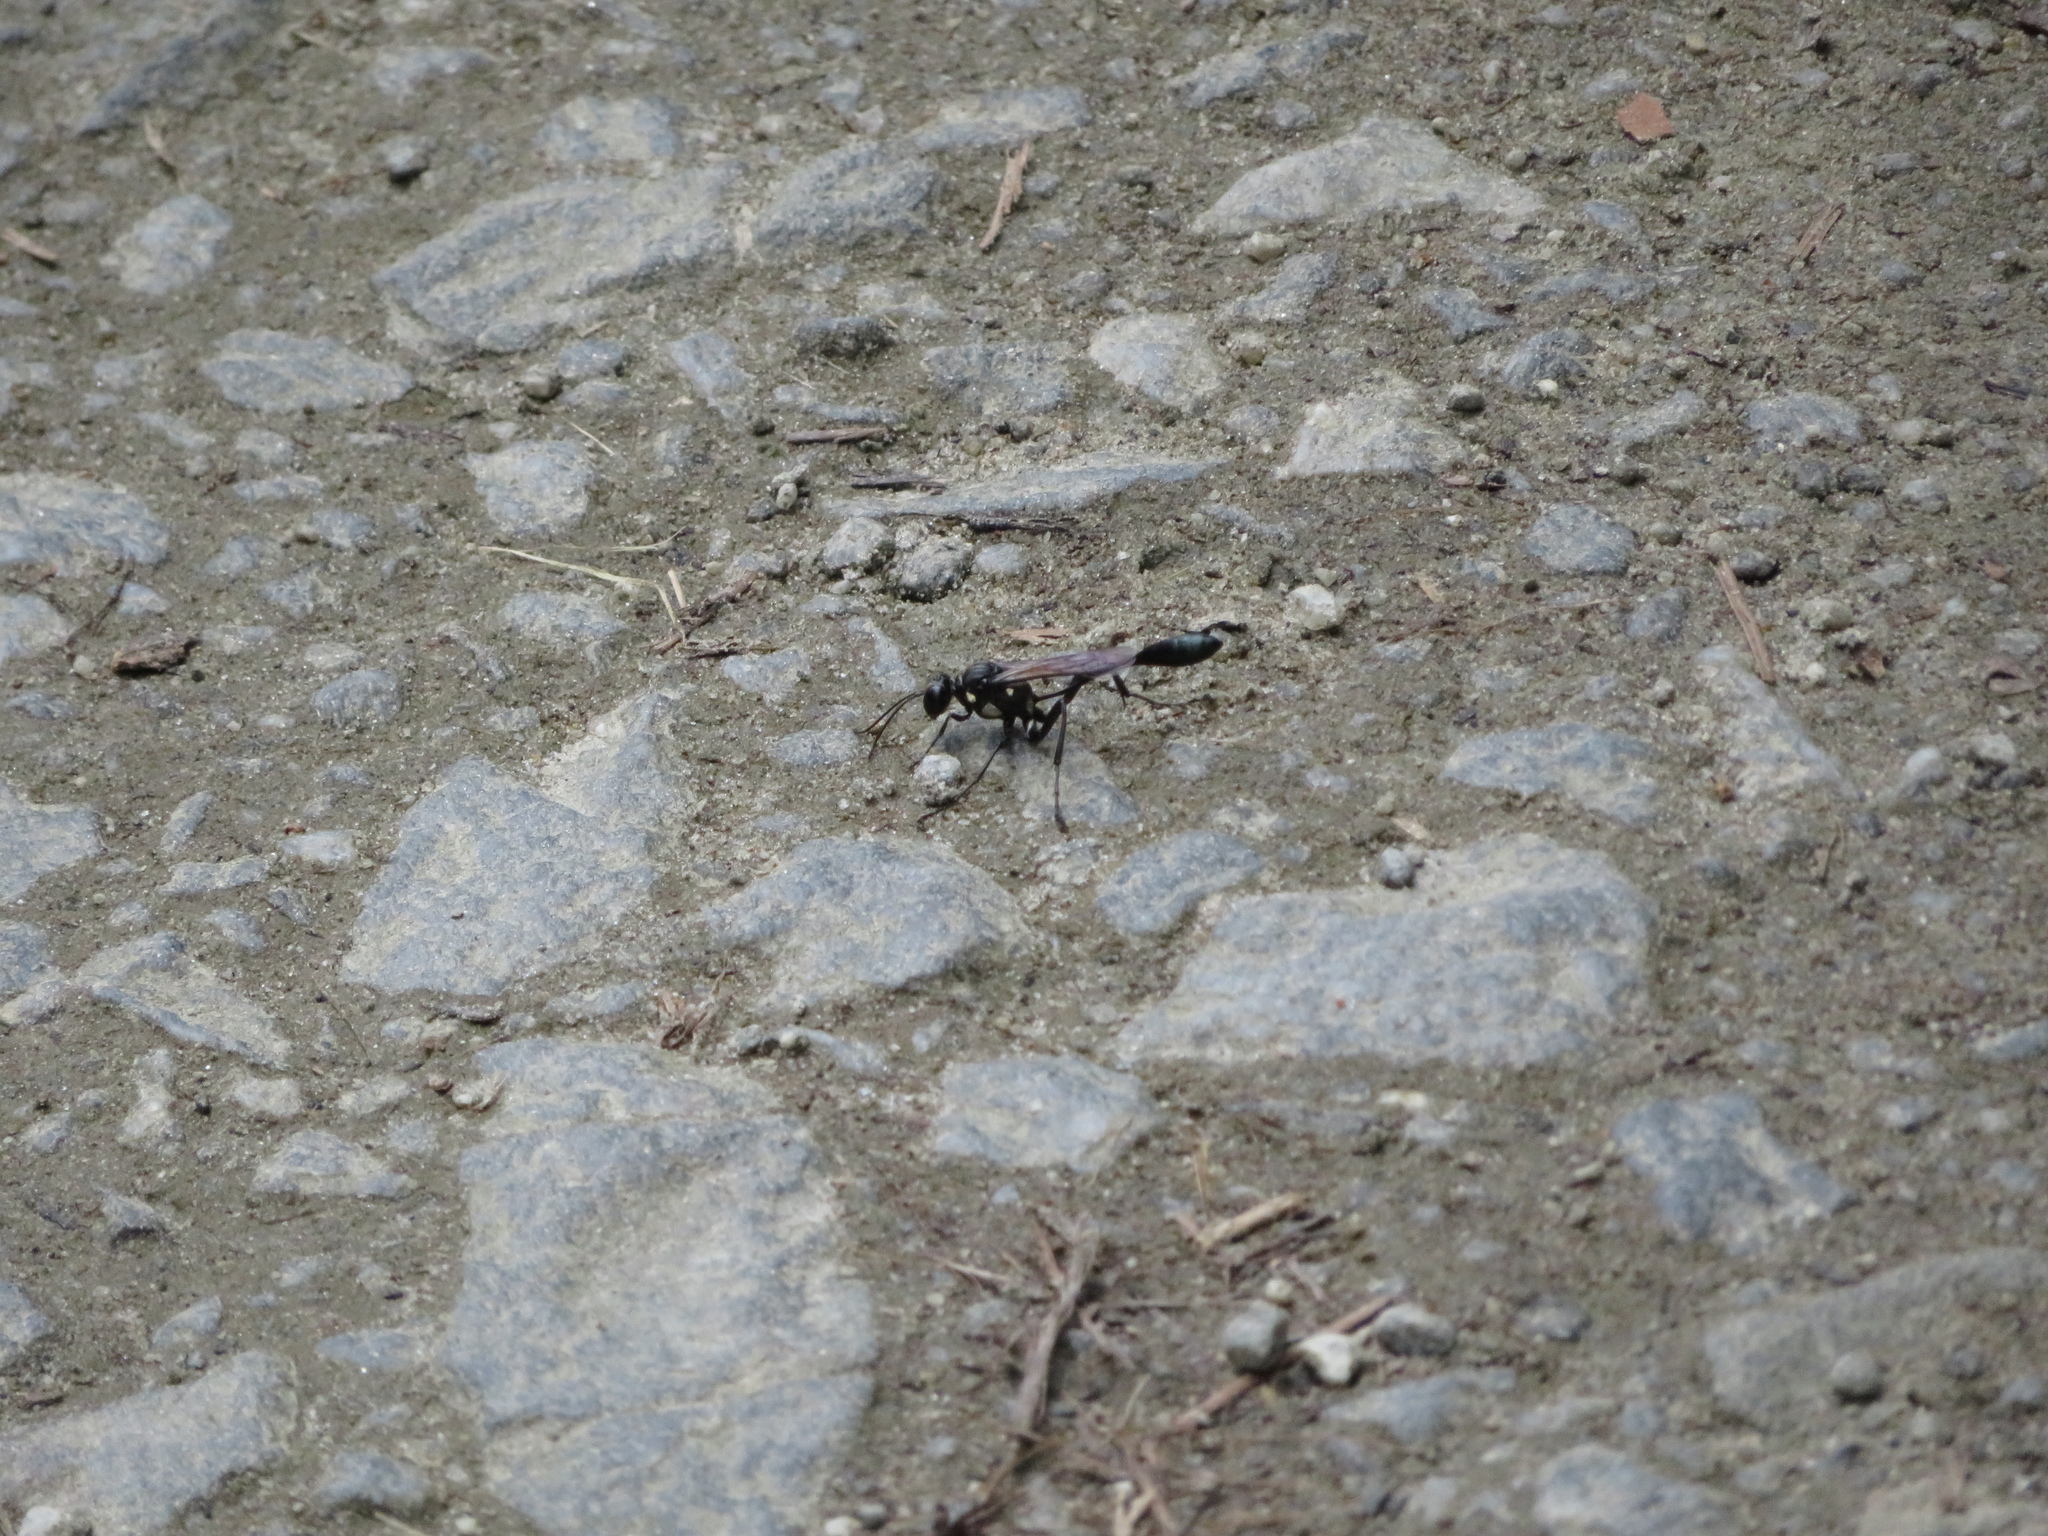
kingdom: Animalia
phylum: Arthropoda
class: Insecta
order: Hymenoptera
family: Sphecidae
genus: Eremnophila
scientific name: Eremnophila aureonotata
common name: Gold-marked thread-waisted wasp
